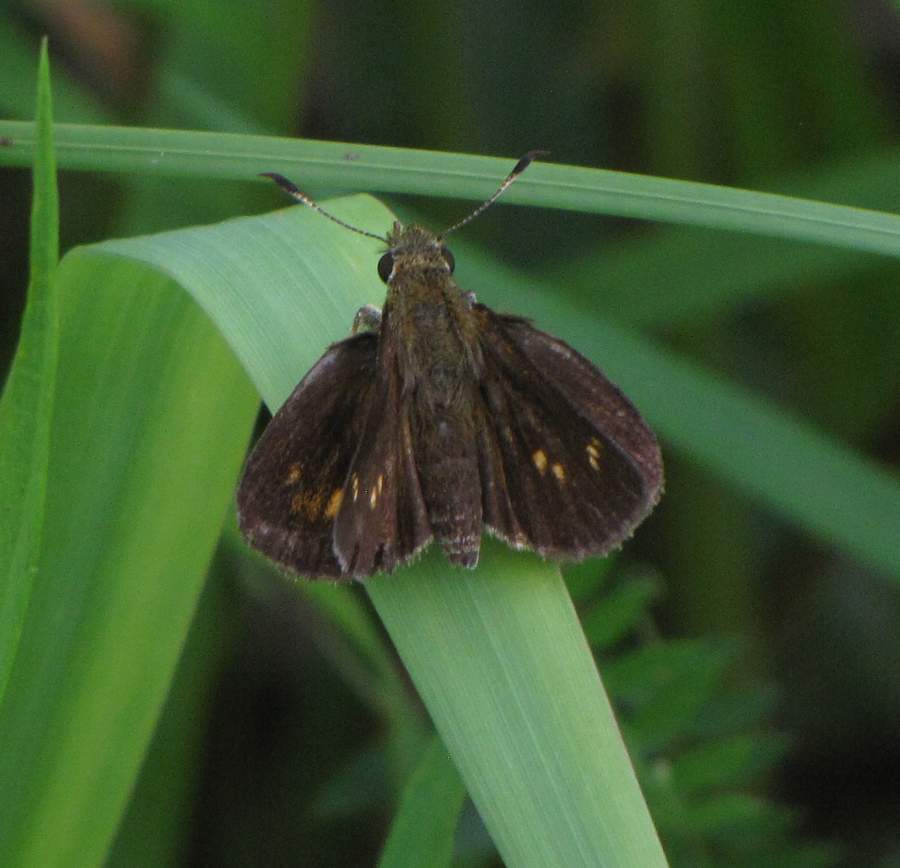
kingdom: Animalia
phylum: Arthropoda
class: Insecta
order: Lepidoptera
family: Hesperiidae
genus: Poanes
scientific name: Poanes massasoit
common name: Mulberrywing
